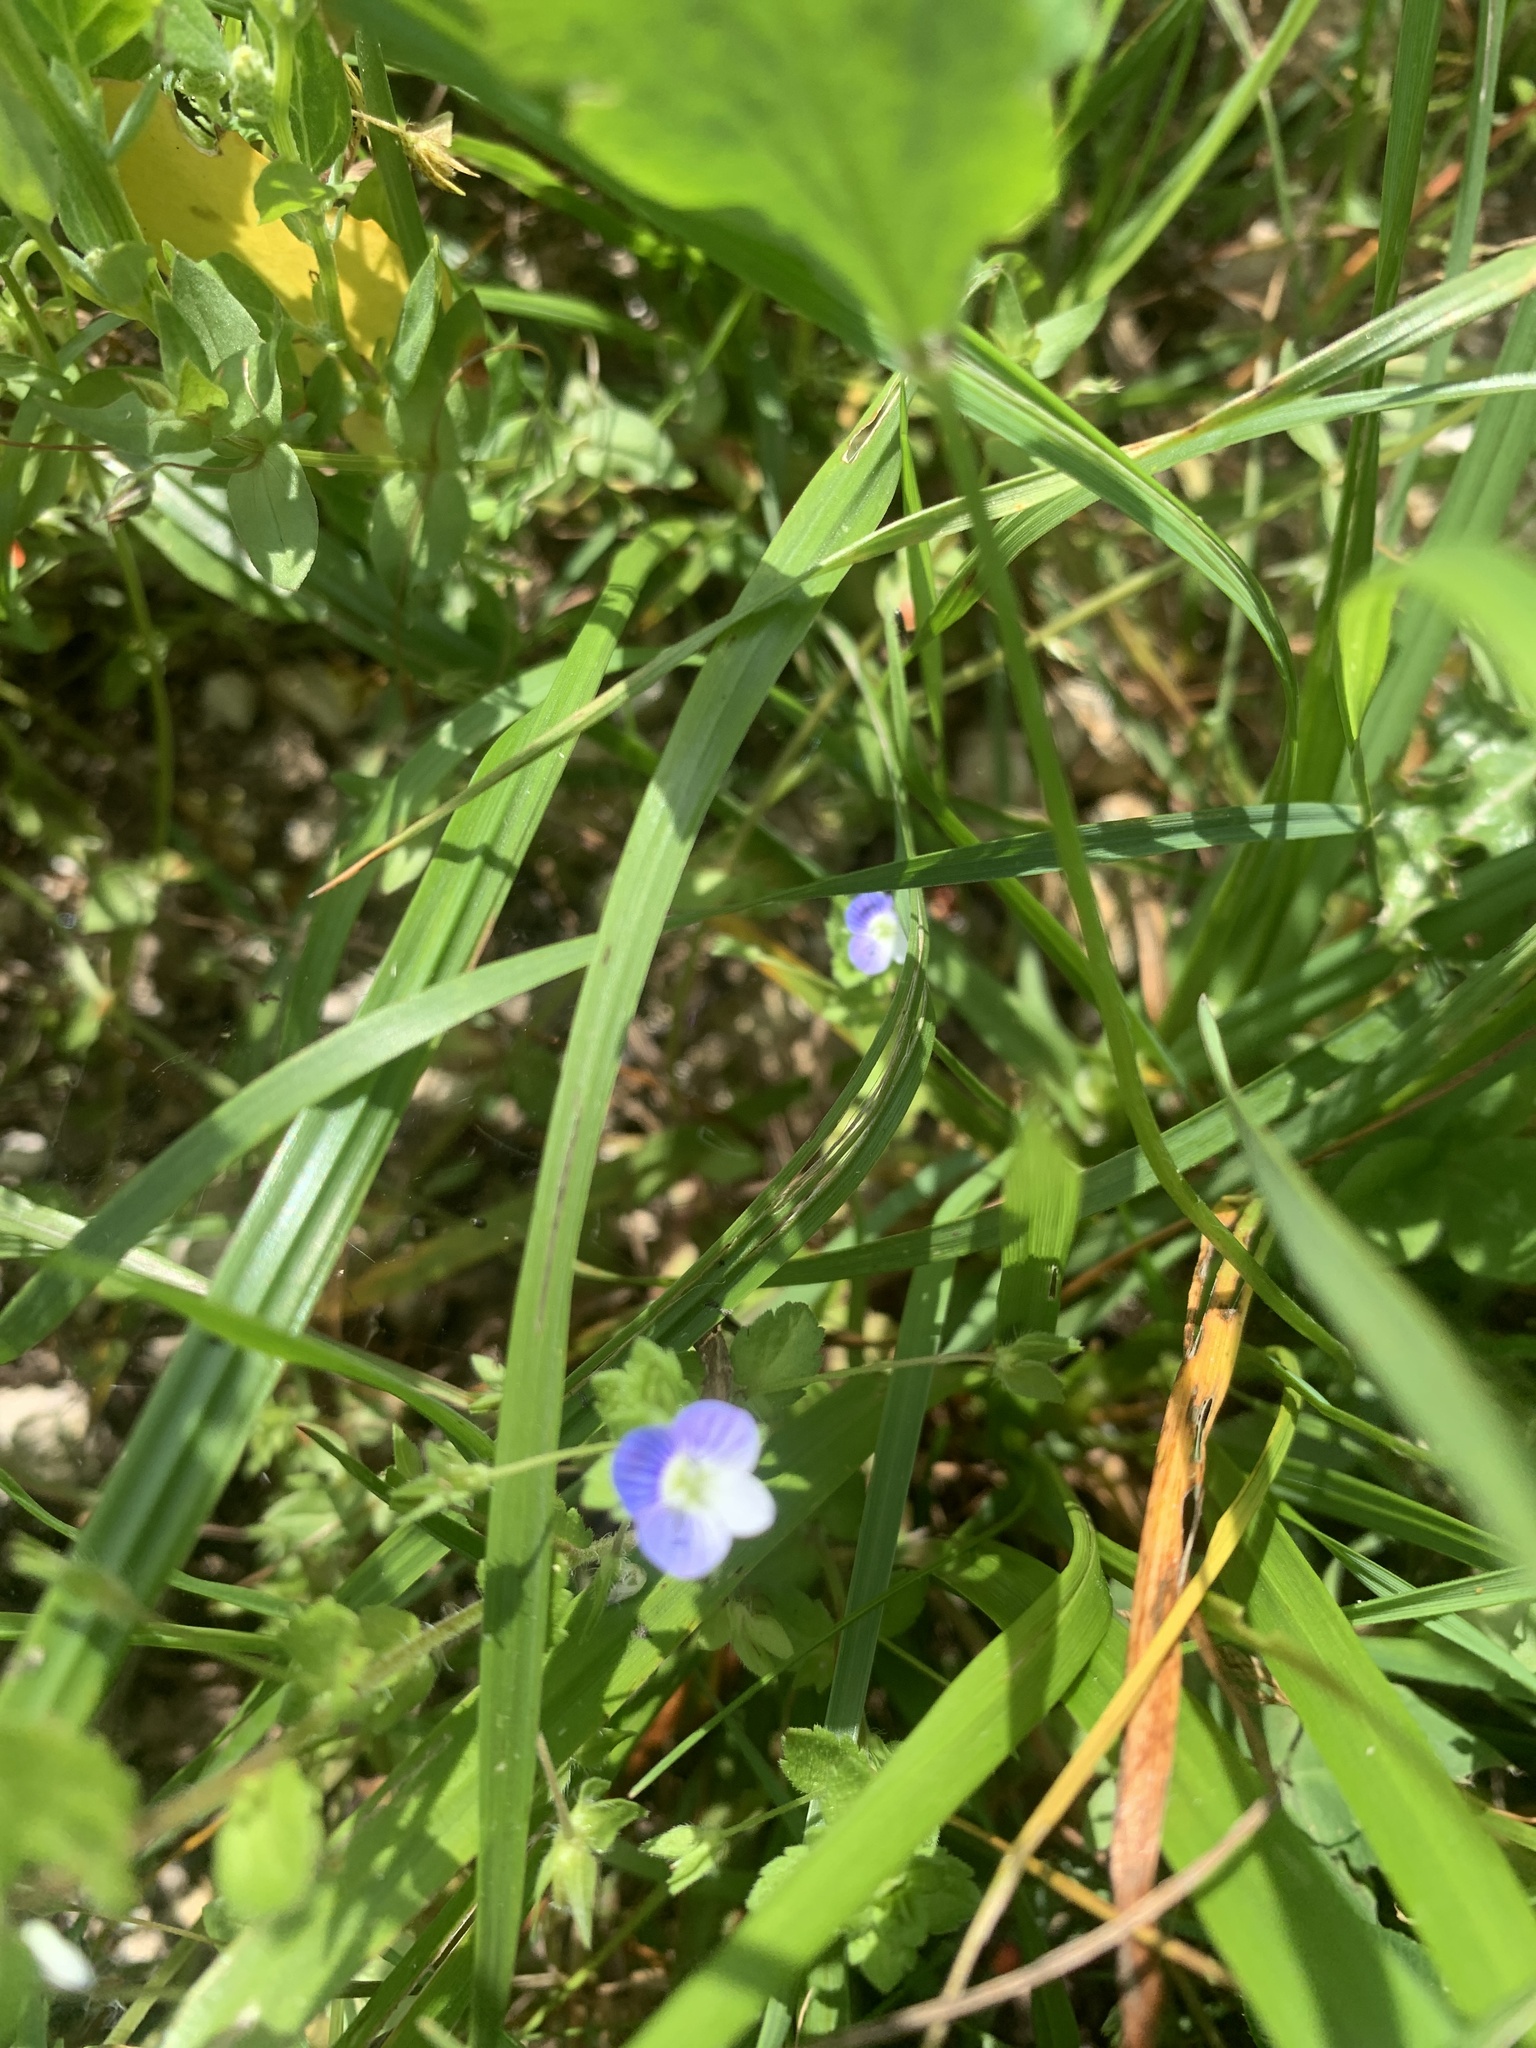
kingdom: Plantae
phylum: Tracheophyta
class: Magnoliopsida
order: Lamiales
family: Plantaginaceae
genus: Veronica
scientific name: Veronica persica
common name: Common field-speedwell
